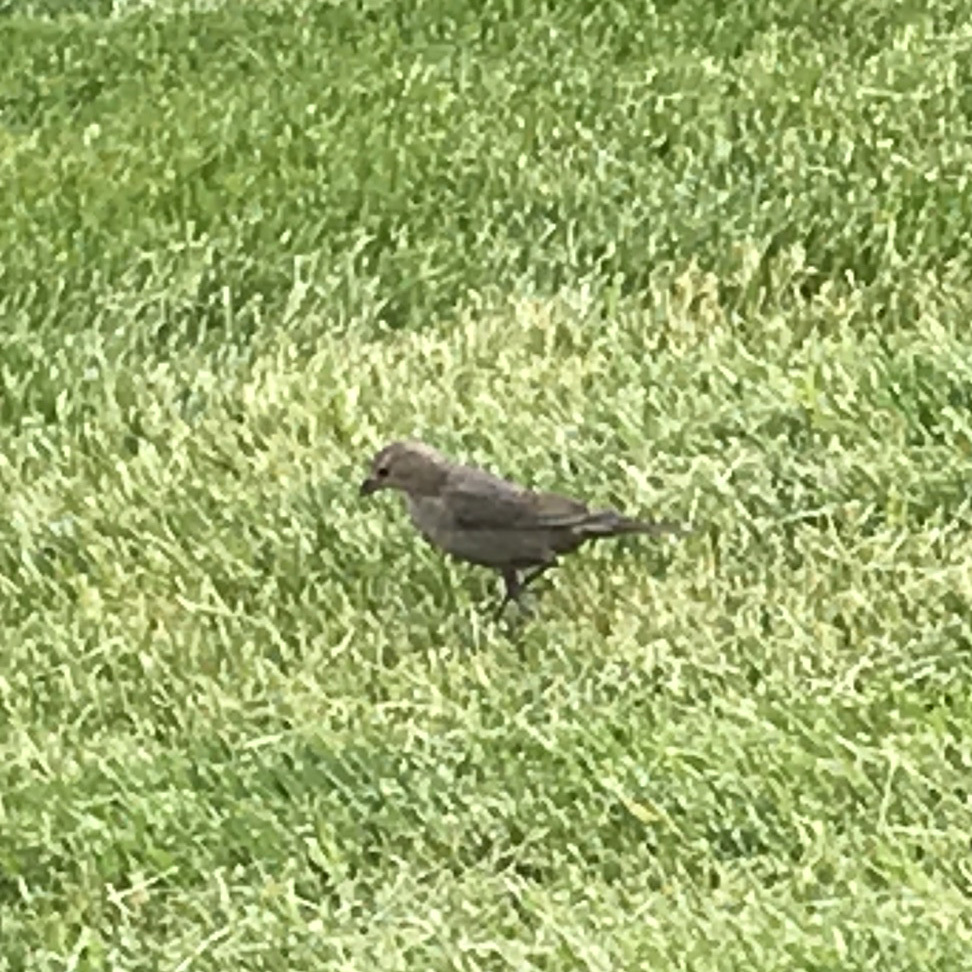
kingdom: Animalia
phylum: Chordata
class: Aves
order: Passeriformes
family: Icteridae
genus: Molothrus
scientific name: Molothrus ater
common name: Brown-headed cowbird
